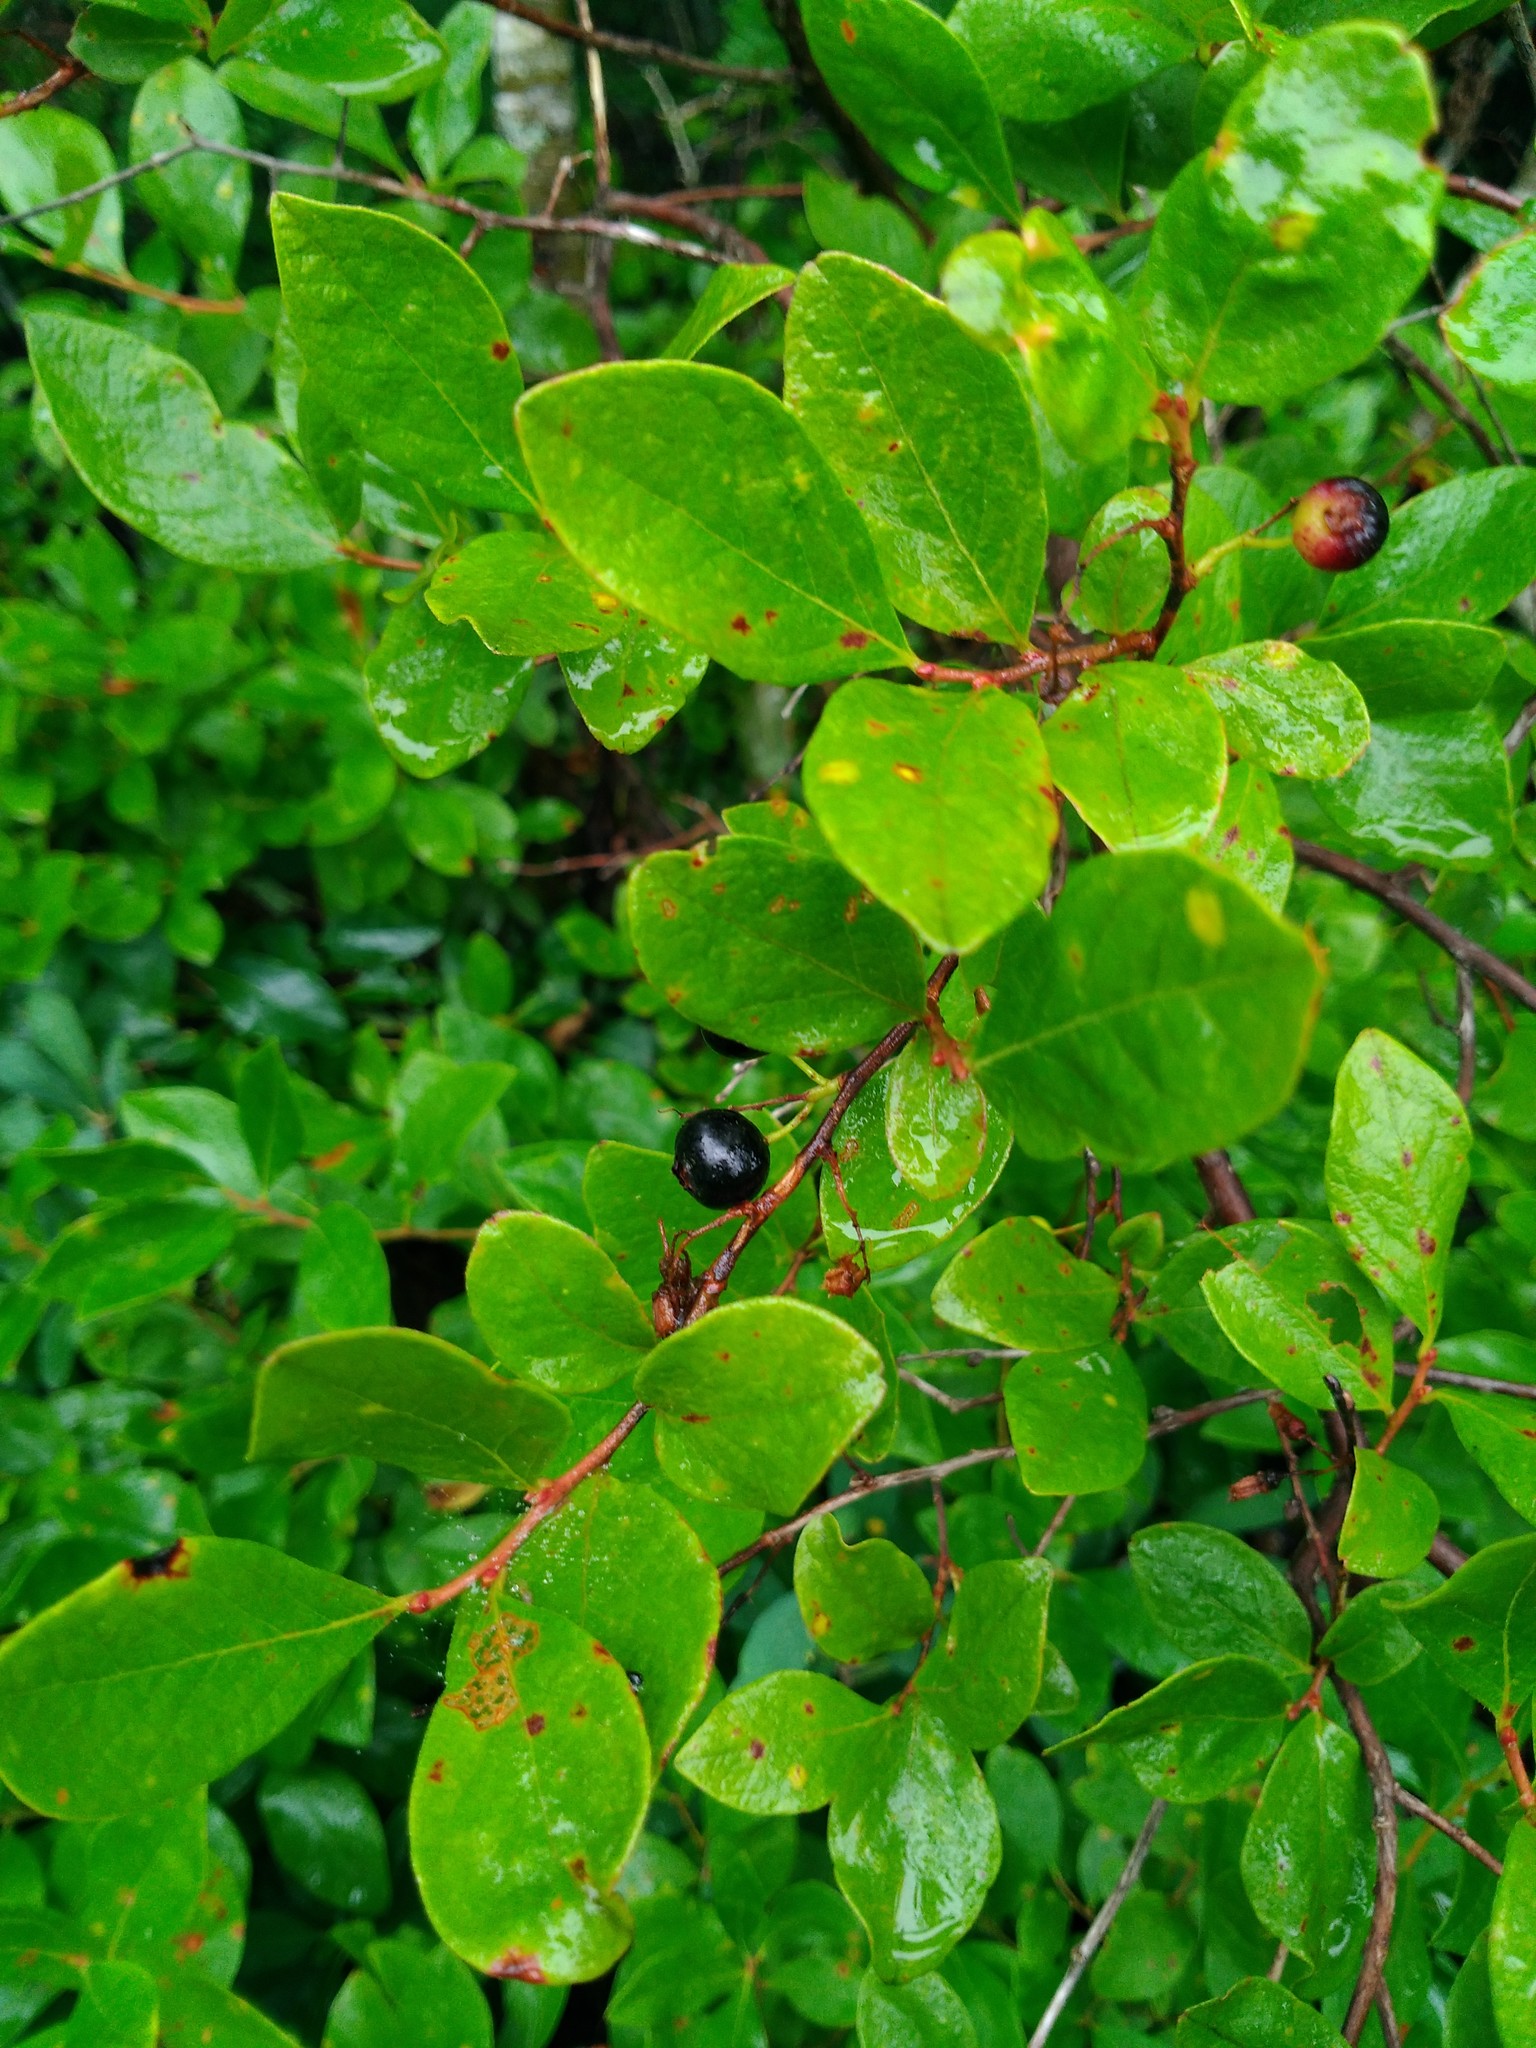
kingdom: Plantae
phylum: Tracheophyta
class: Magnoliopsida
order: Ericales
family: Ericaceae
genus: Gaylussacia
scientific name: Gaylussacia baccata
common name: Black huckleberry
